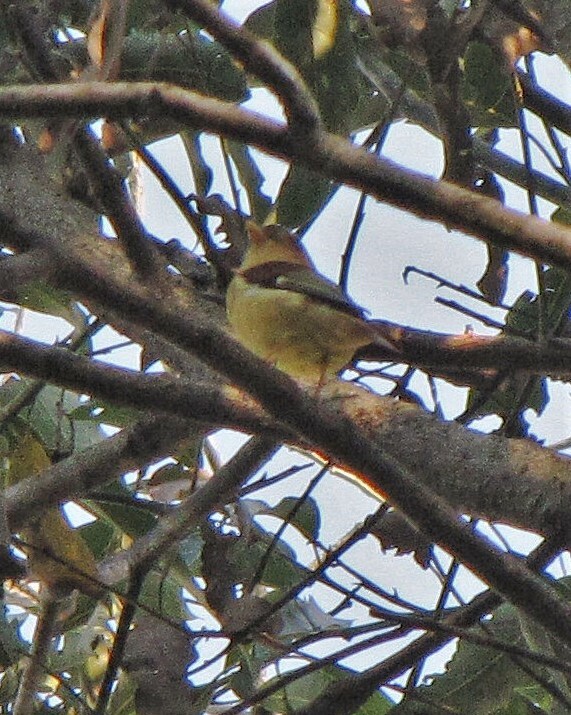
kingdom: Animalia
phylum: Chordata
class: Aves
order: Passeriformes
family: Cotingidae
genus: Piprites
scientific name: Piprites pileata
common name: Black-capped piprites
